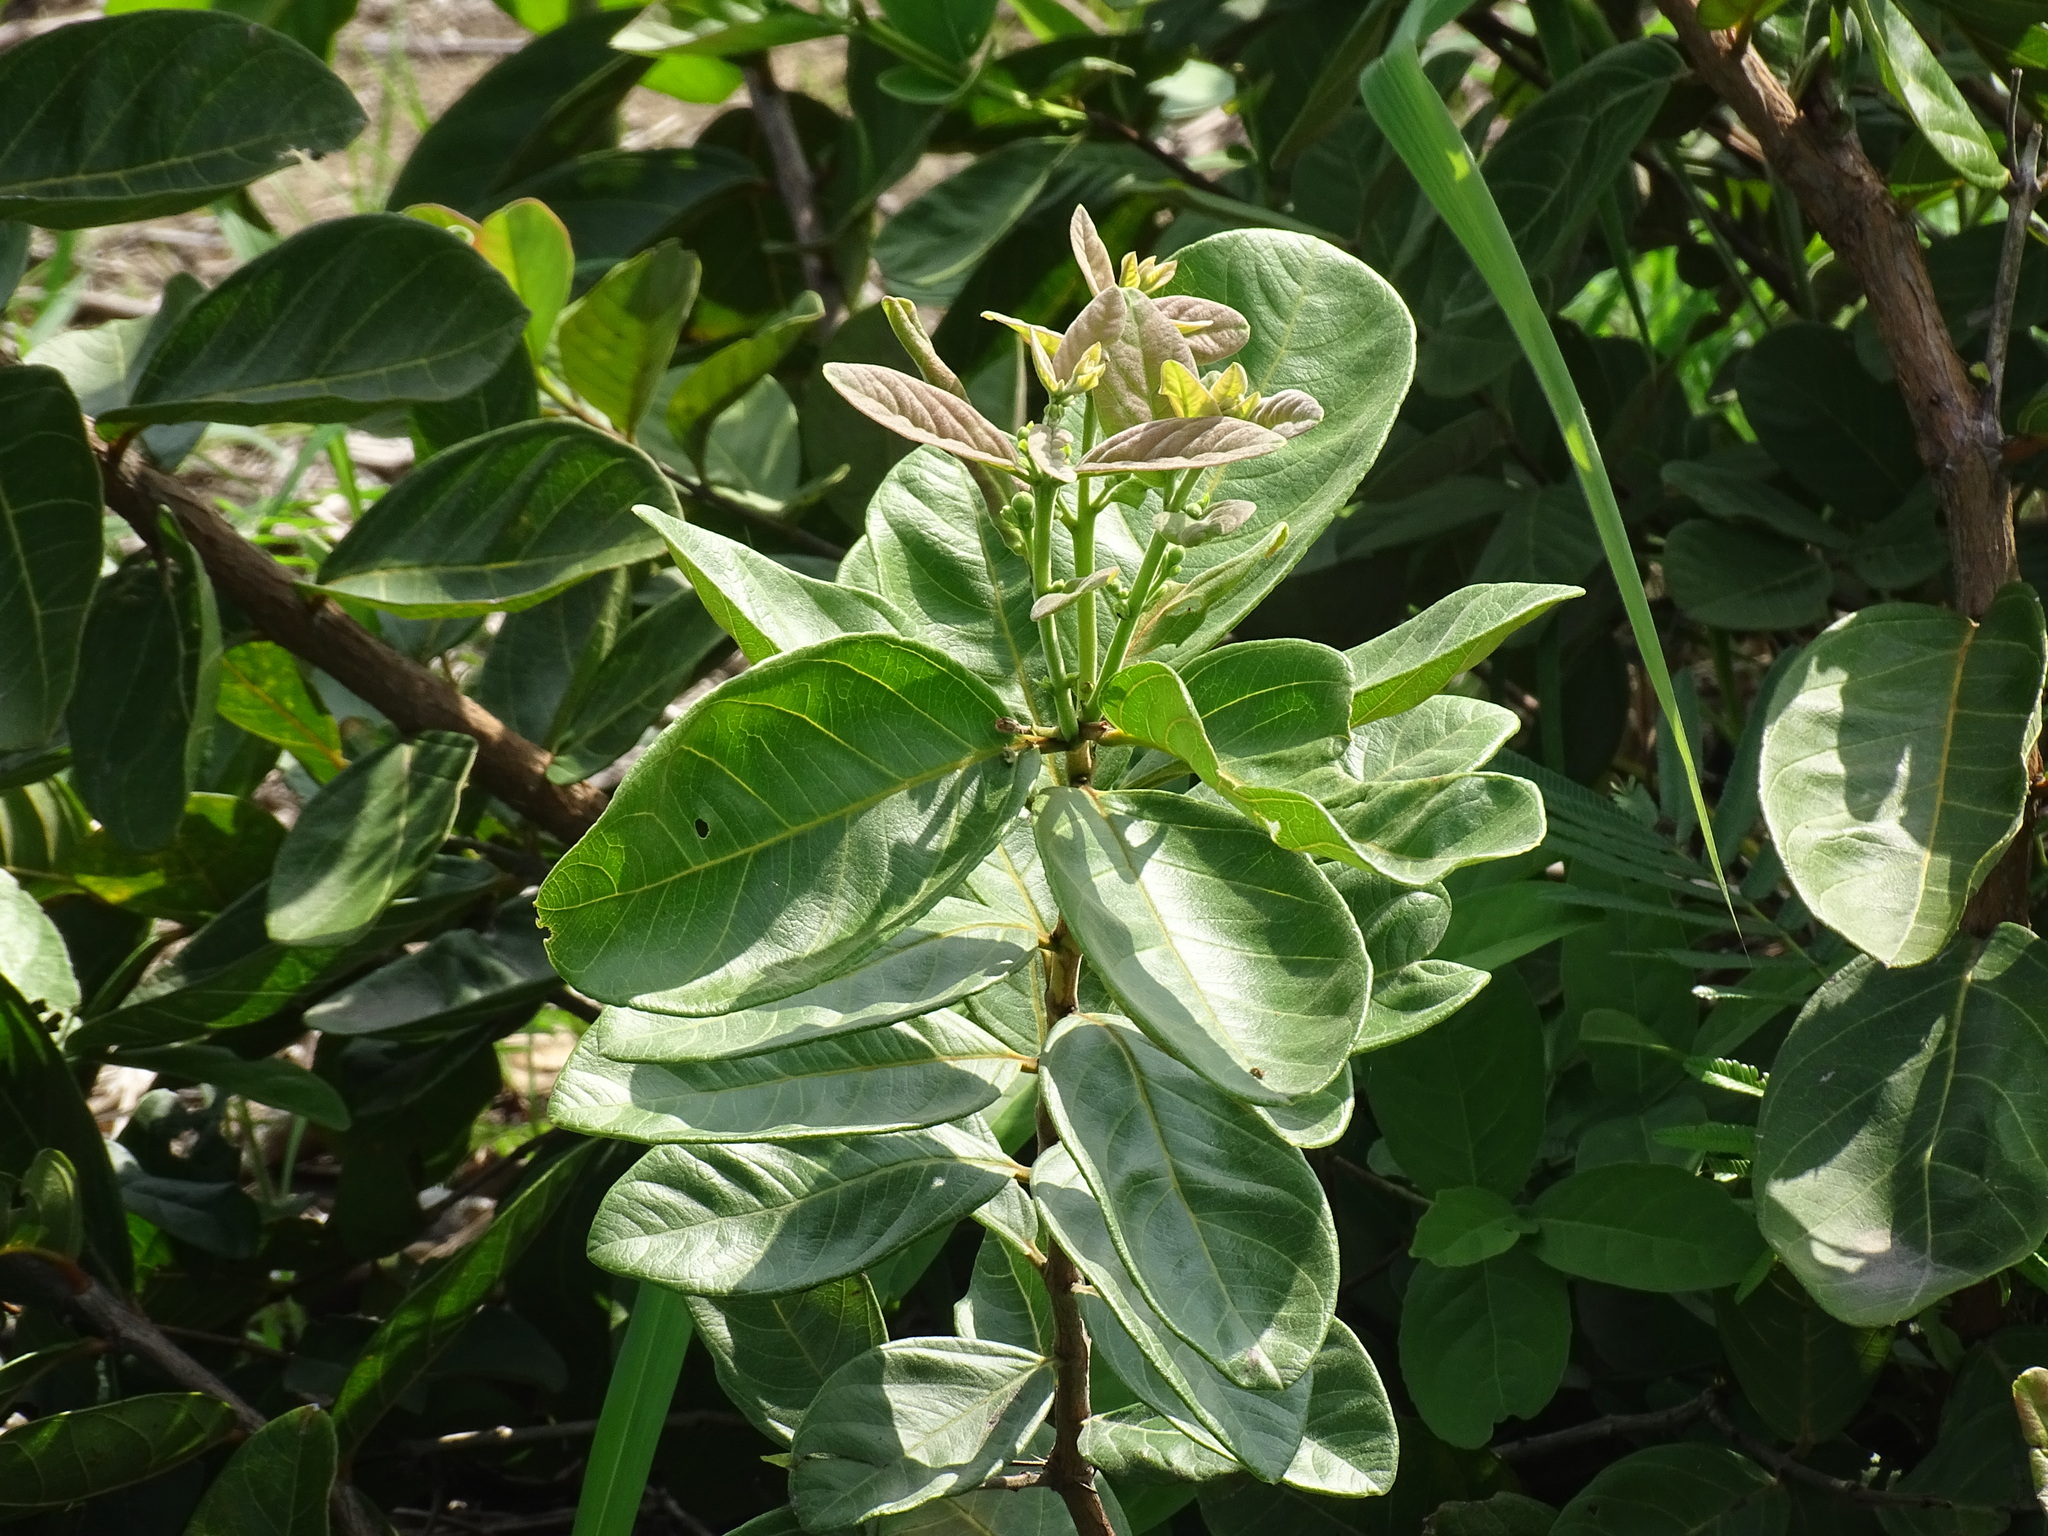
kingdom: Plantae
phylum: Tracheophyta
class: Magnoliopsida
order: Myrtales
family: Myrtaceae
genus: Psidium
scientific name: Psidium guineense
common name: Brazilian guava
